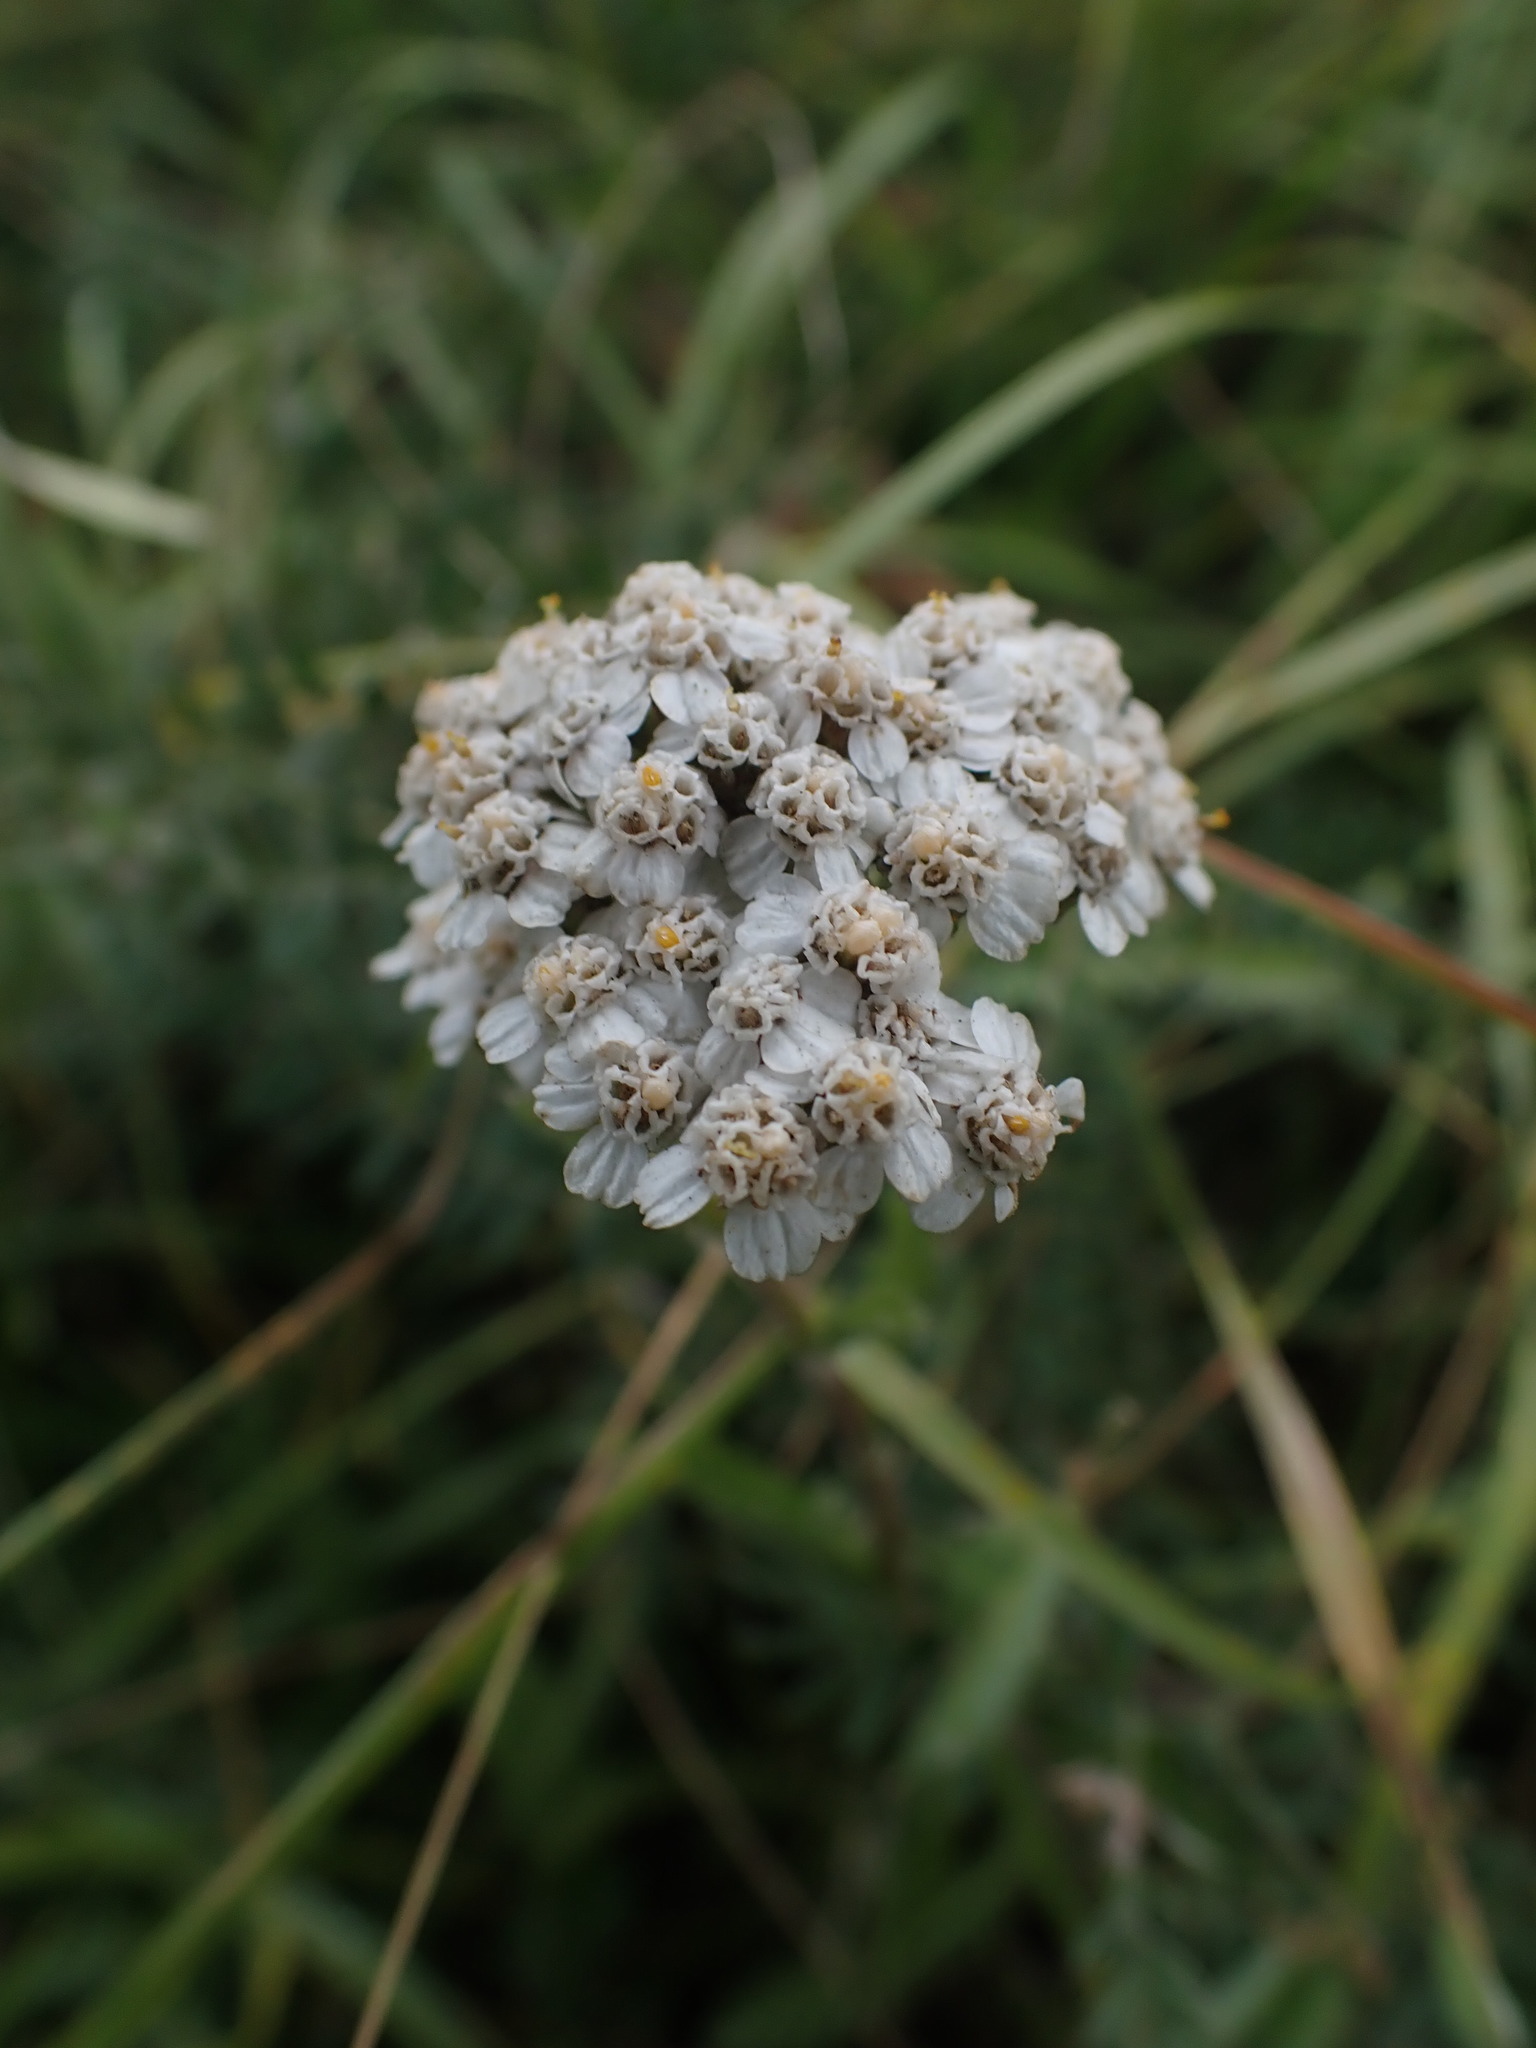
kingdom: Plantae
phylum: Tracheophyta
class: Magnoliopsida
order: Asterales
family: Asteraceae
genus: Achillea
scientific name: Achillea millefolium
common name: Yarrow
